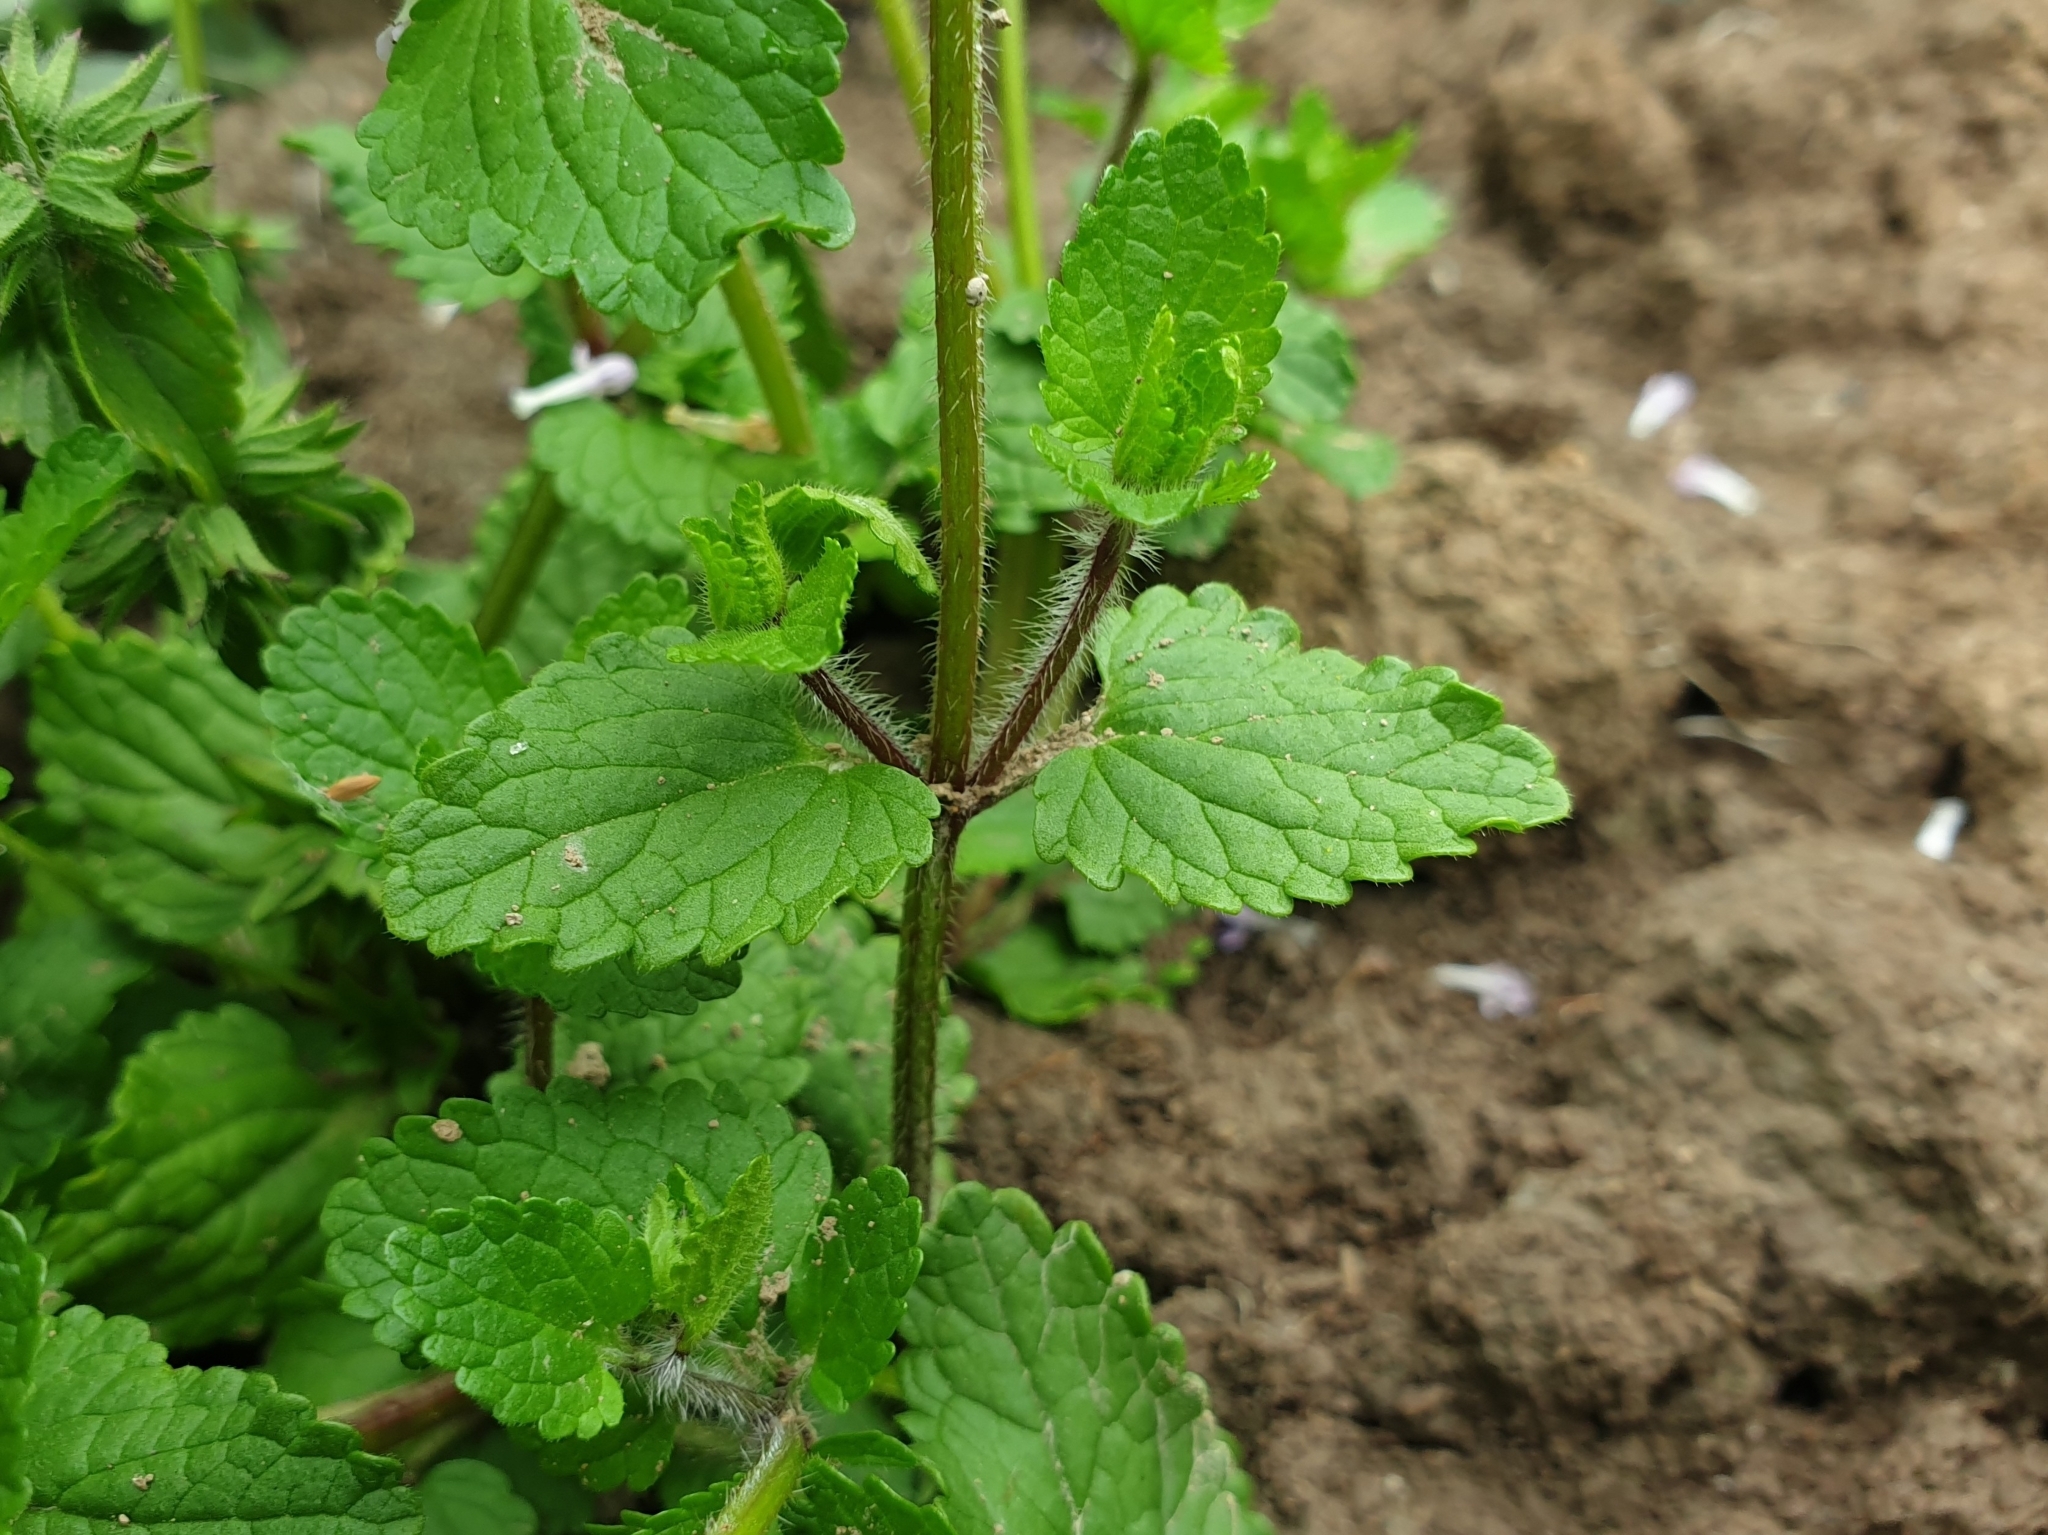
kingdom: Plantae
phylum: Tracheophyta
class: Magnoliopsida
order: Lamiales
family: Lamiaceae
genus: Stachys
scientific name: Stachys arvensis
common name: Field woundwort
